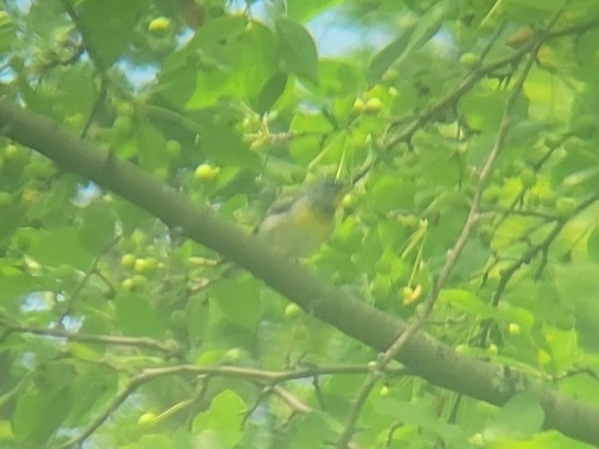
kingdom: Animalia
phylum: Chordata
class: Aves
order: Passeriformes
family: Parulidae
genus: Setophaga
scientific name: Setophaga americana
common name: Northern parula
